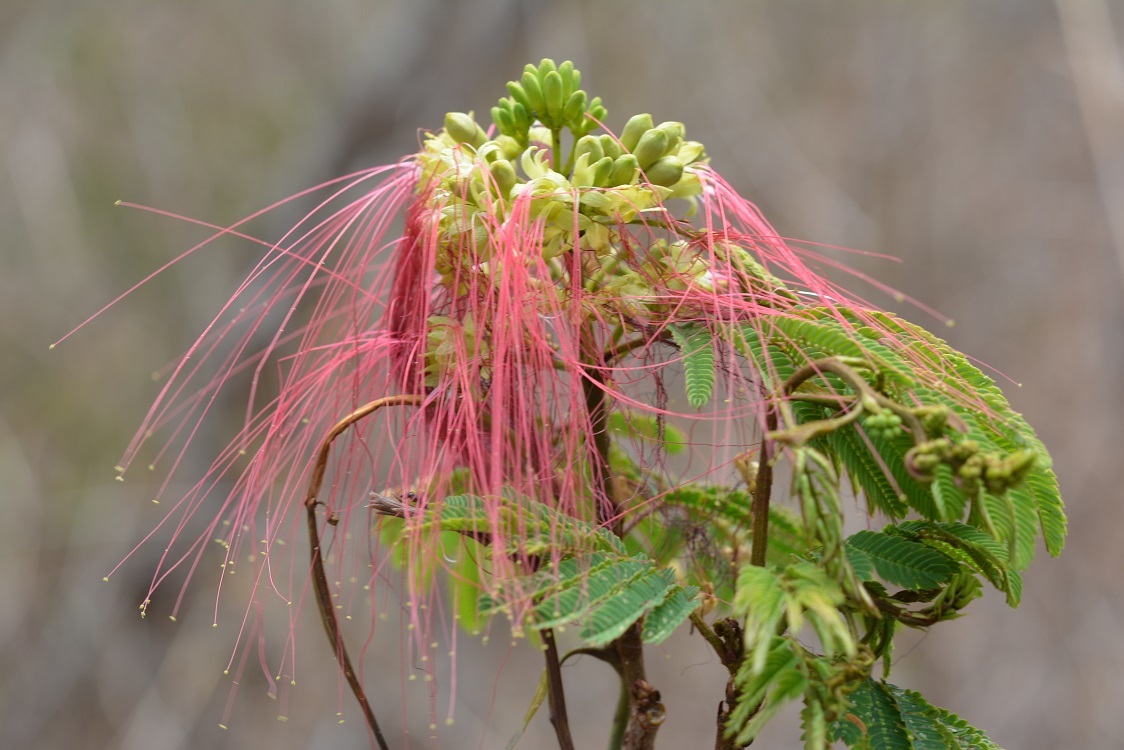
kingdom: Plantae
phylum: Tracheophyta
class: Magnoliopsida
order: Fabales
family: Fabaceae
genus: Calliandra
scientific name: Calliandra houstoniana
